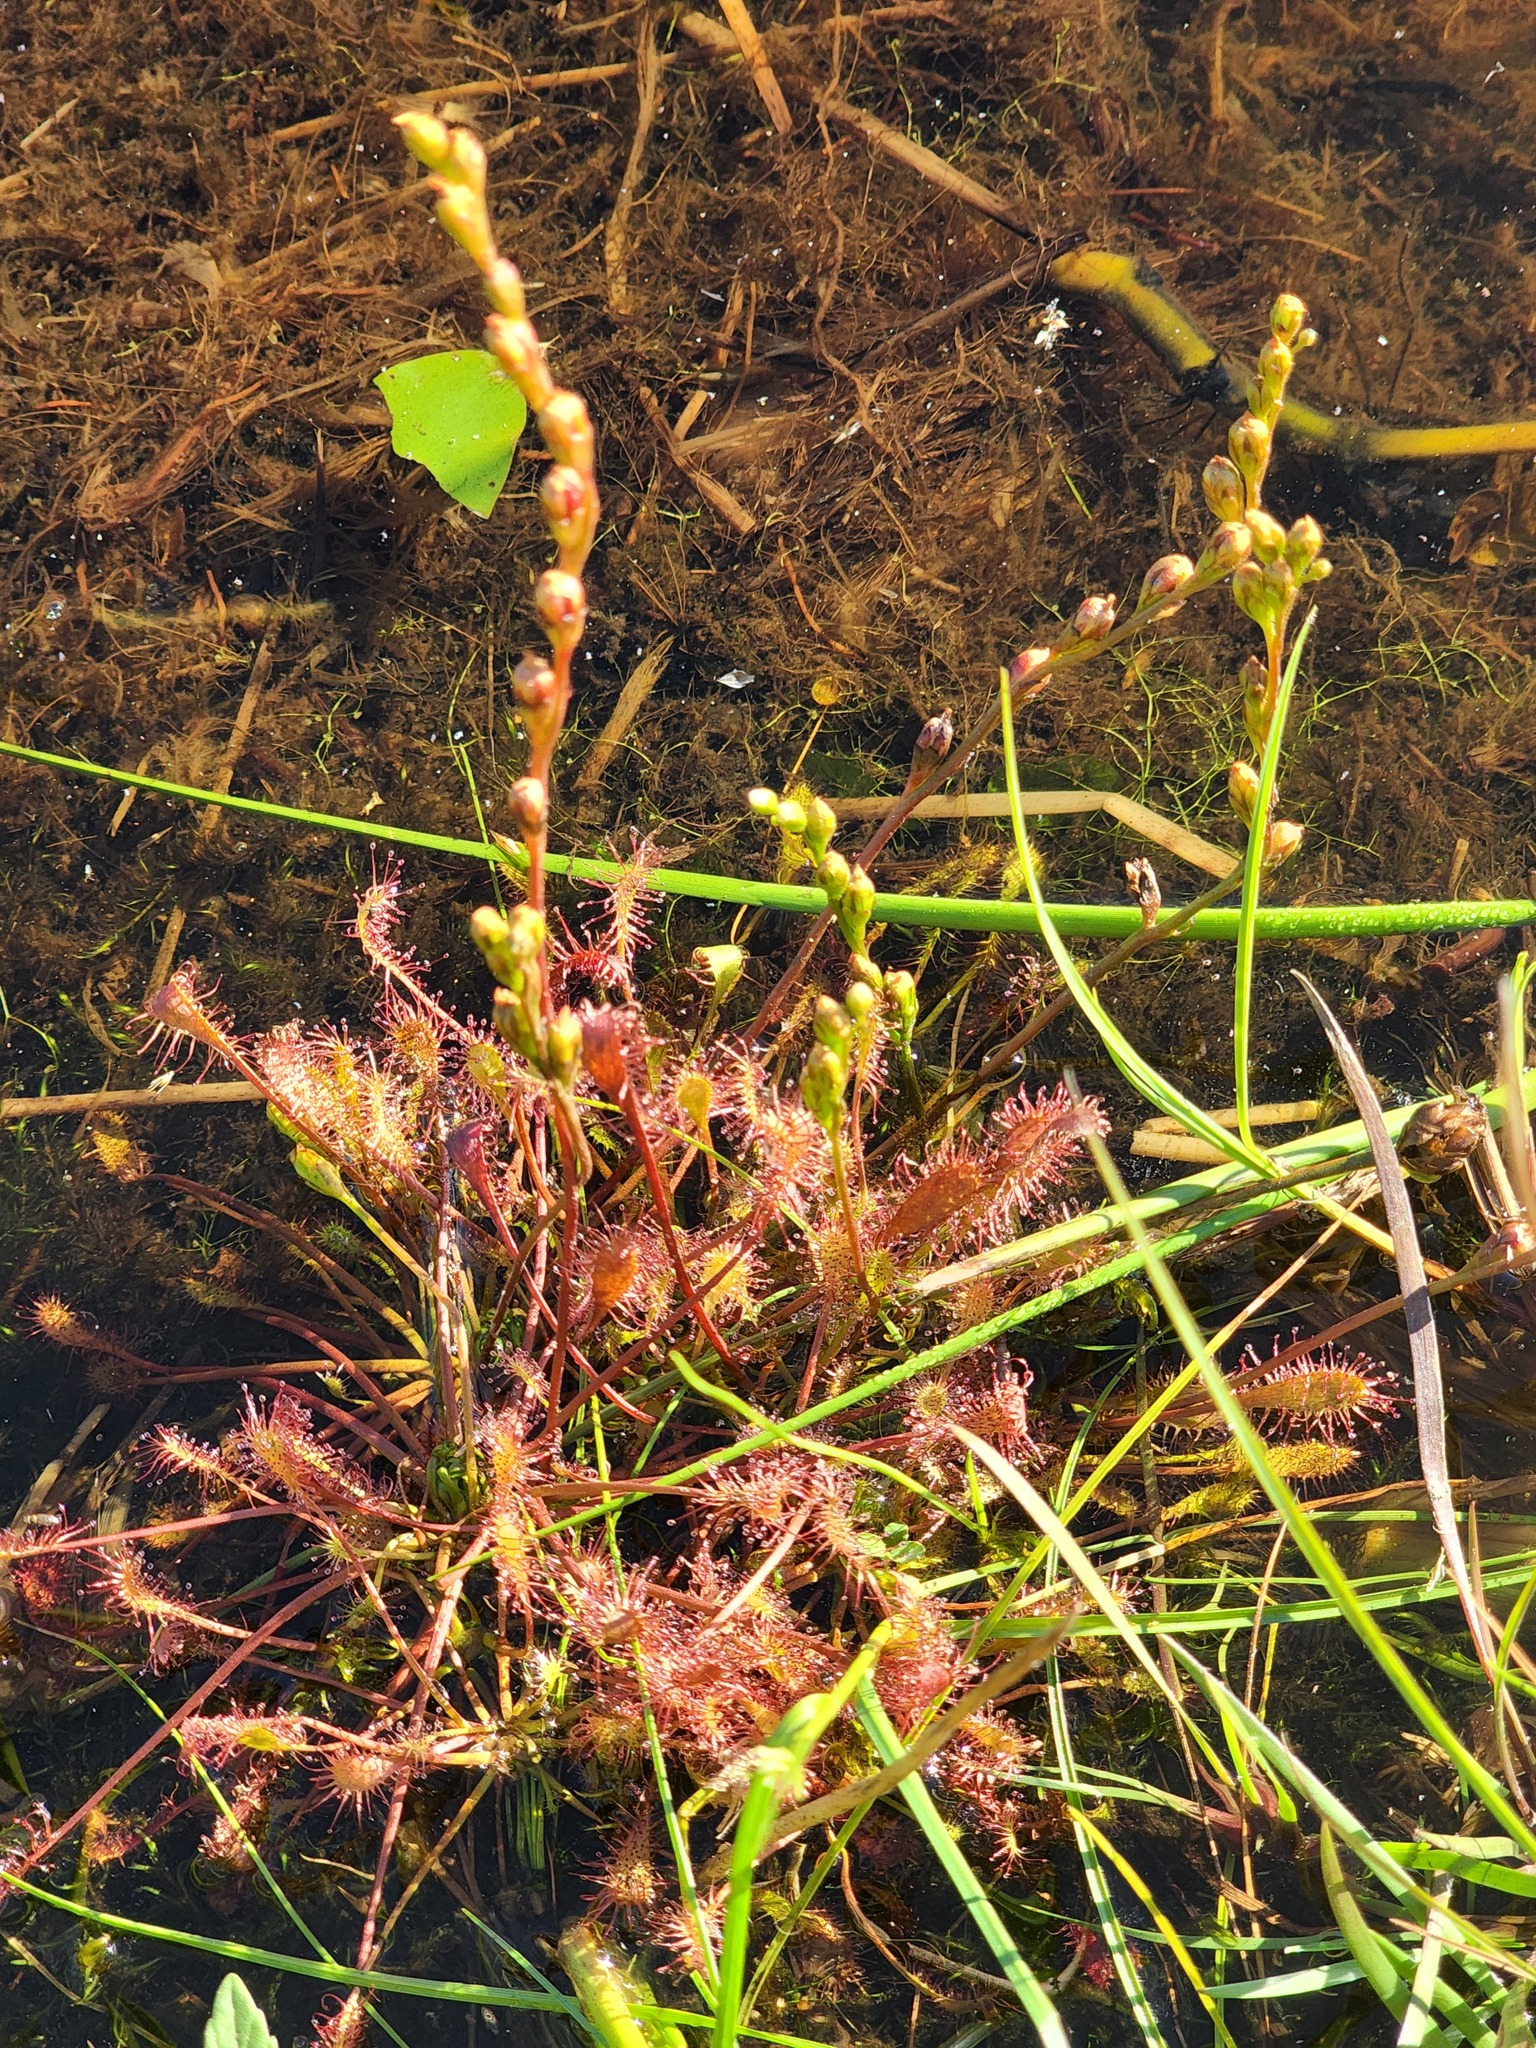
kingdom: Plantae
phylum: Tracheophyta
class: Magnoliopsida
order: Caryophyllales
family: Droseraceae
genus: Drosera
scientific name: Drosera intermedia
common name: Oblong-leaved sundew
